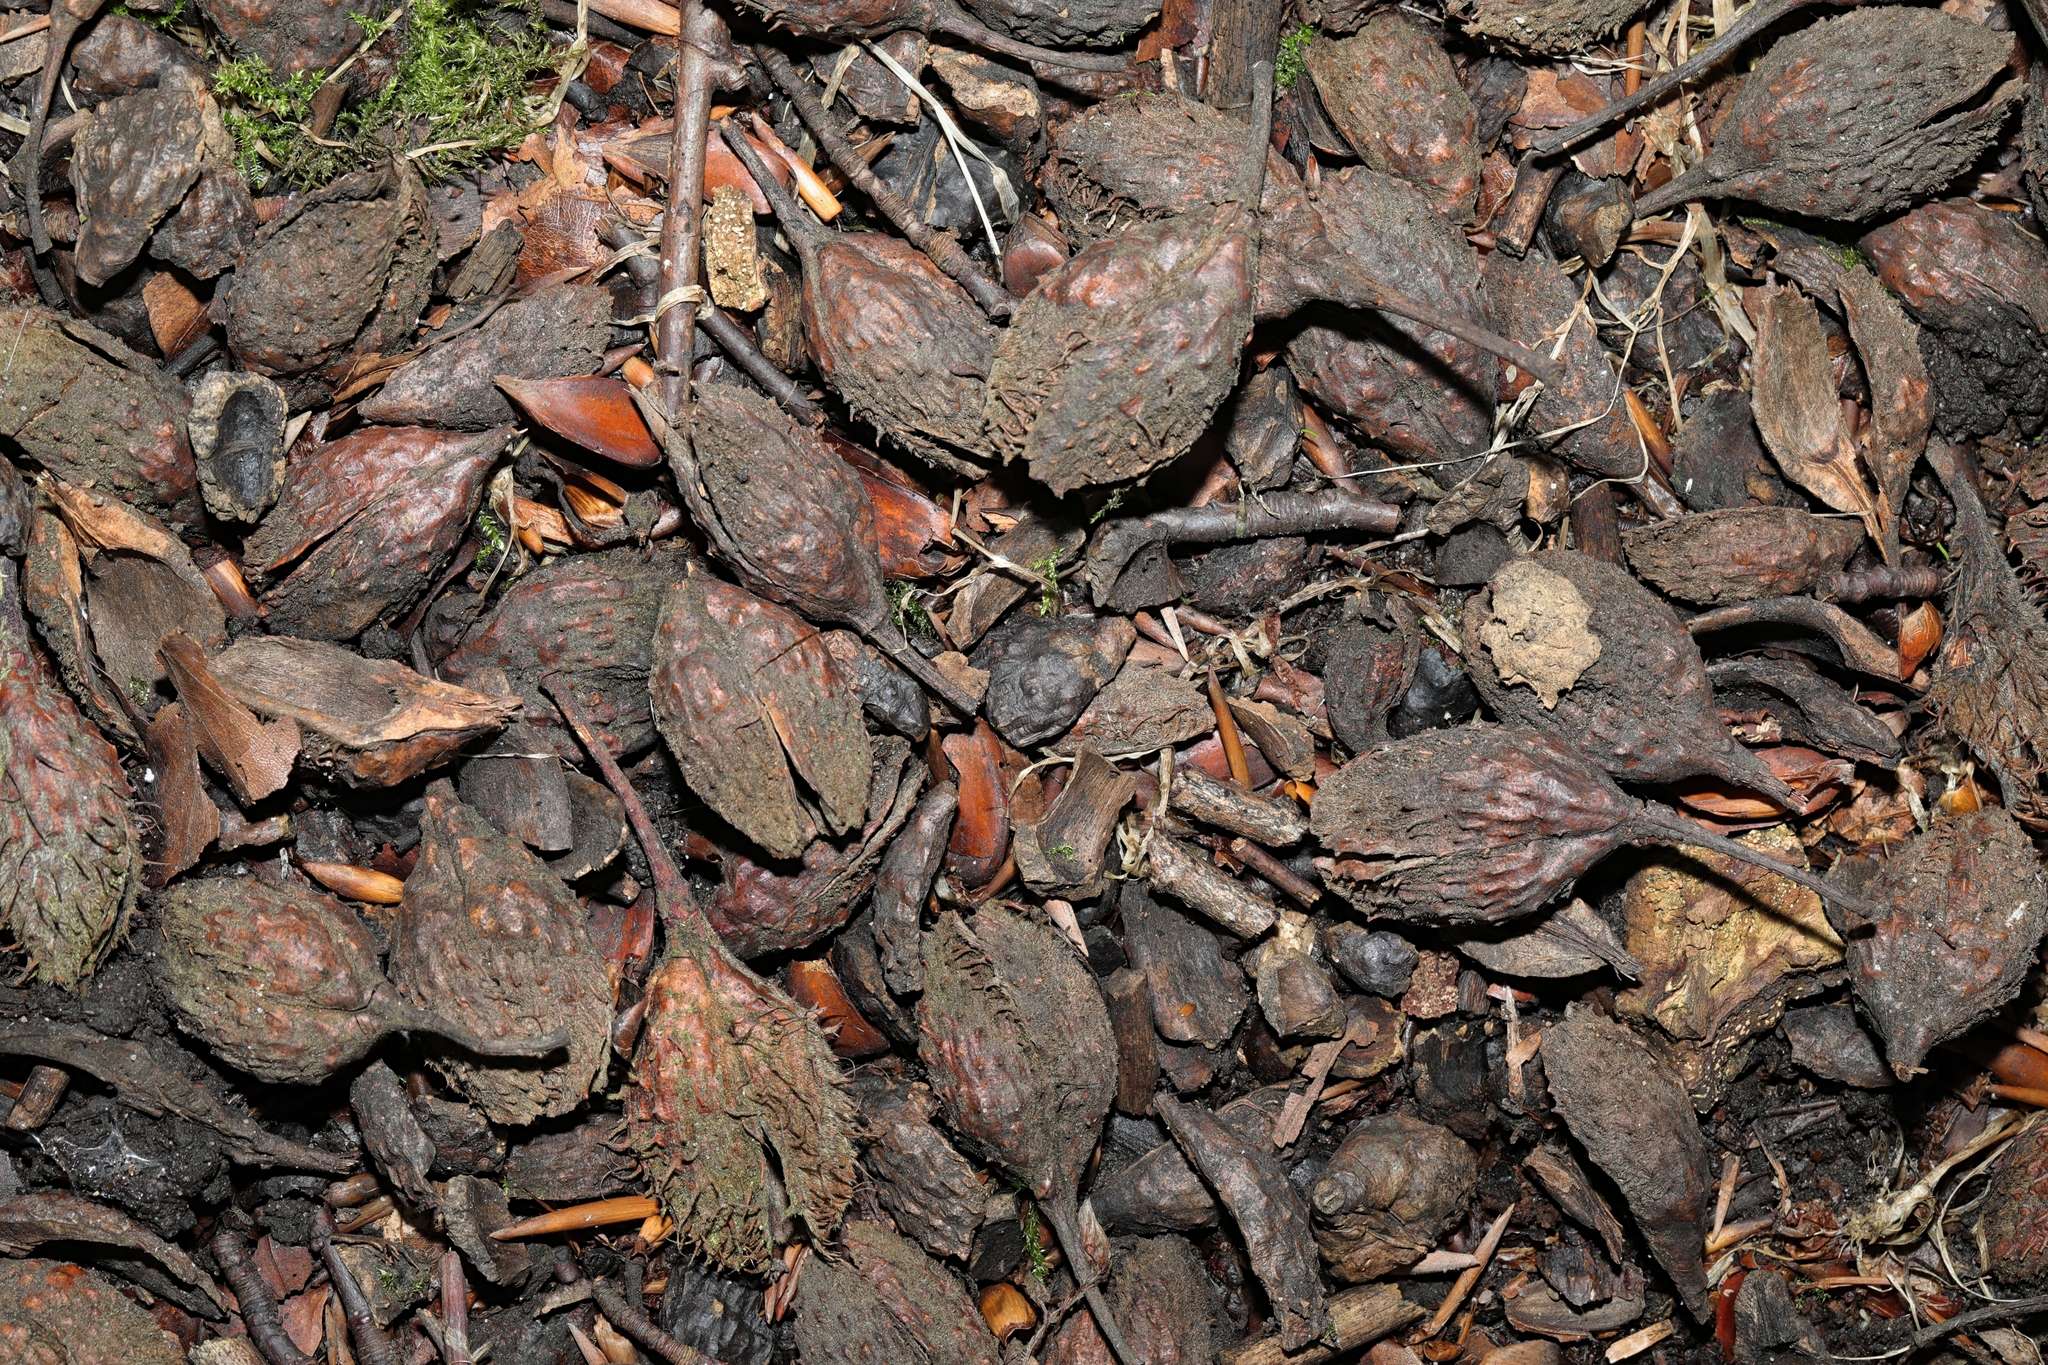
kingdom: Plantae
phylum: Tracheophyta
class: Magnoliopsida
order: Fagales
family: Fagaceae
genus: Fagus
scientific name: Fagus sylvatica
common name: Beech
